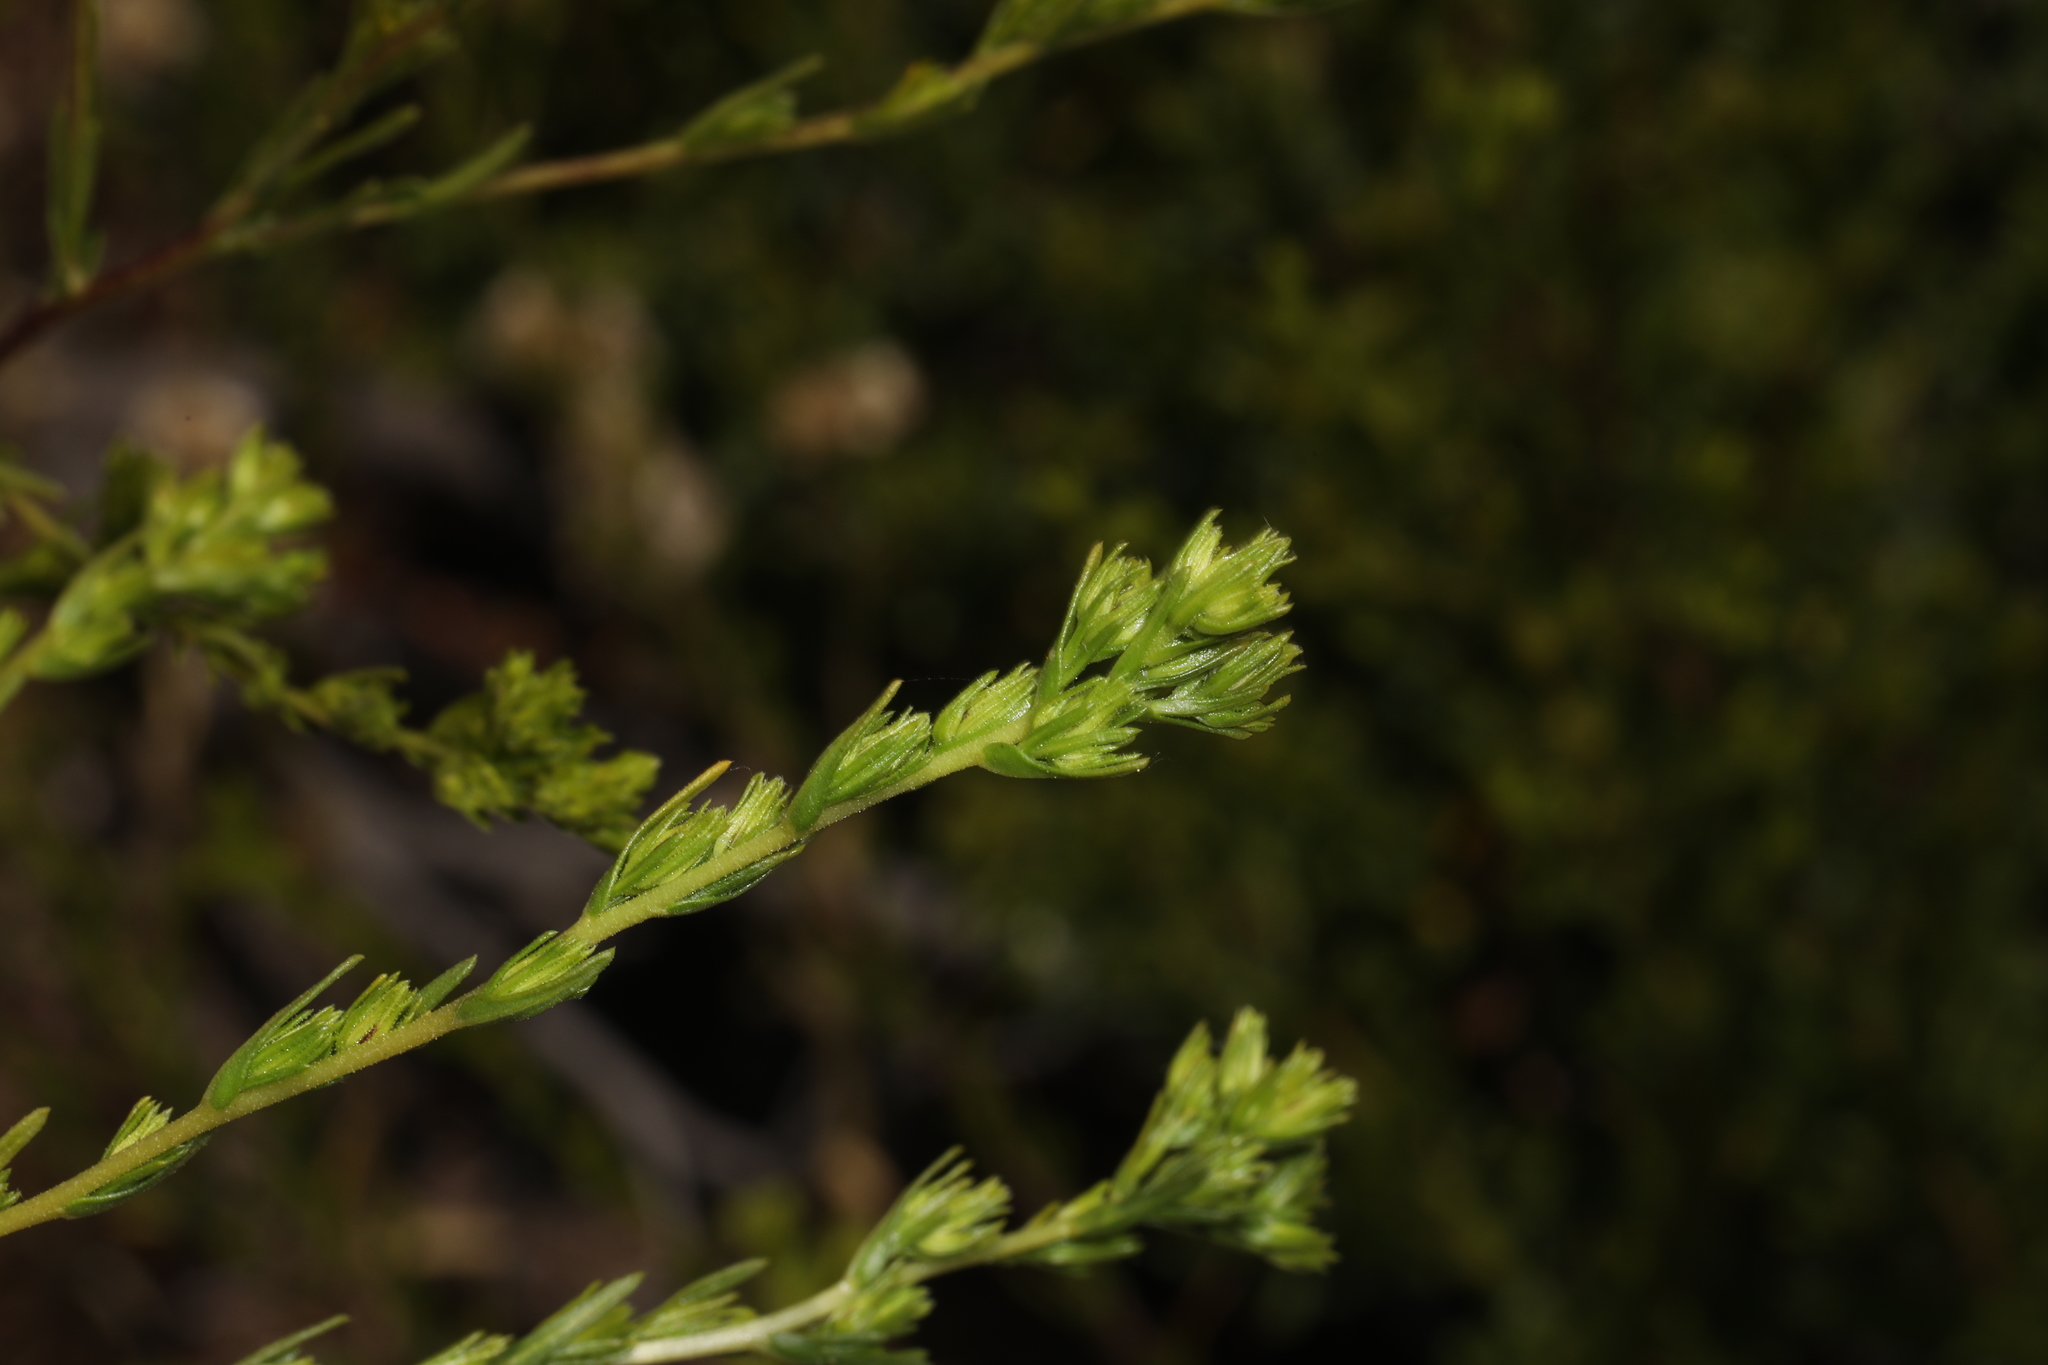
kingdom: Plantae
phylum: Tracheophyta
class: Magnoliopsida
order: Asterales
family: Asteraceae
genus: Deinandra
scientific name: Deinandra fasciculata
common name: Clustered tarweed
